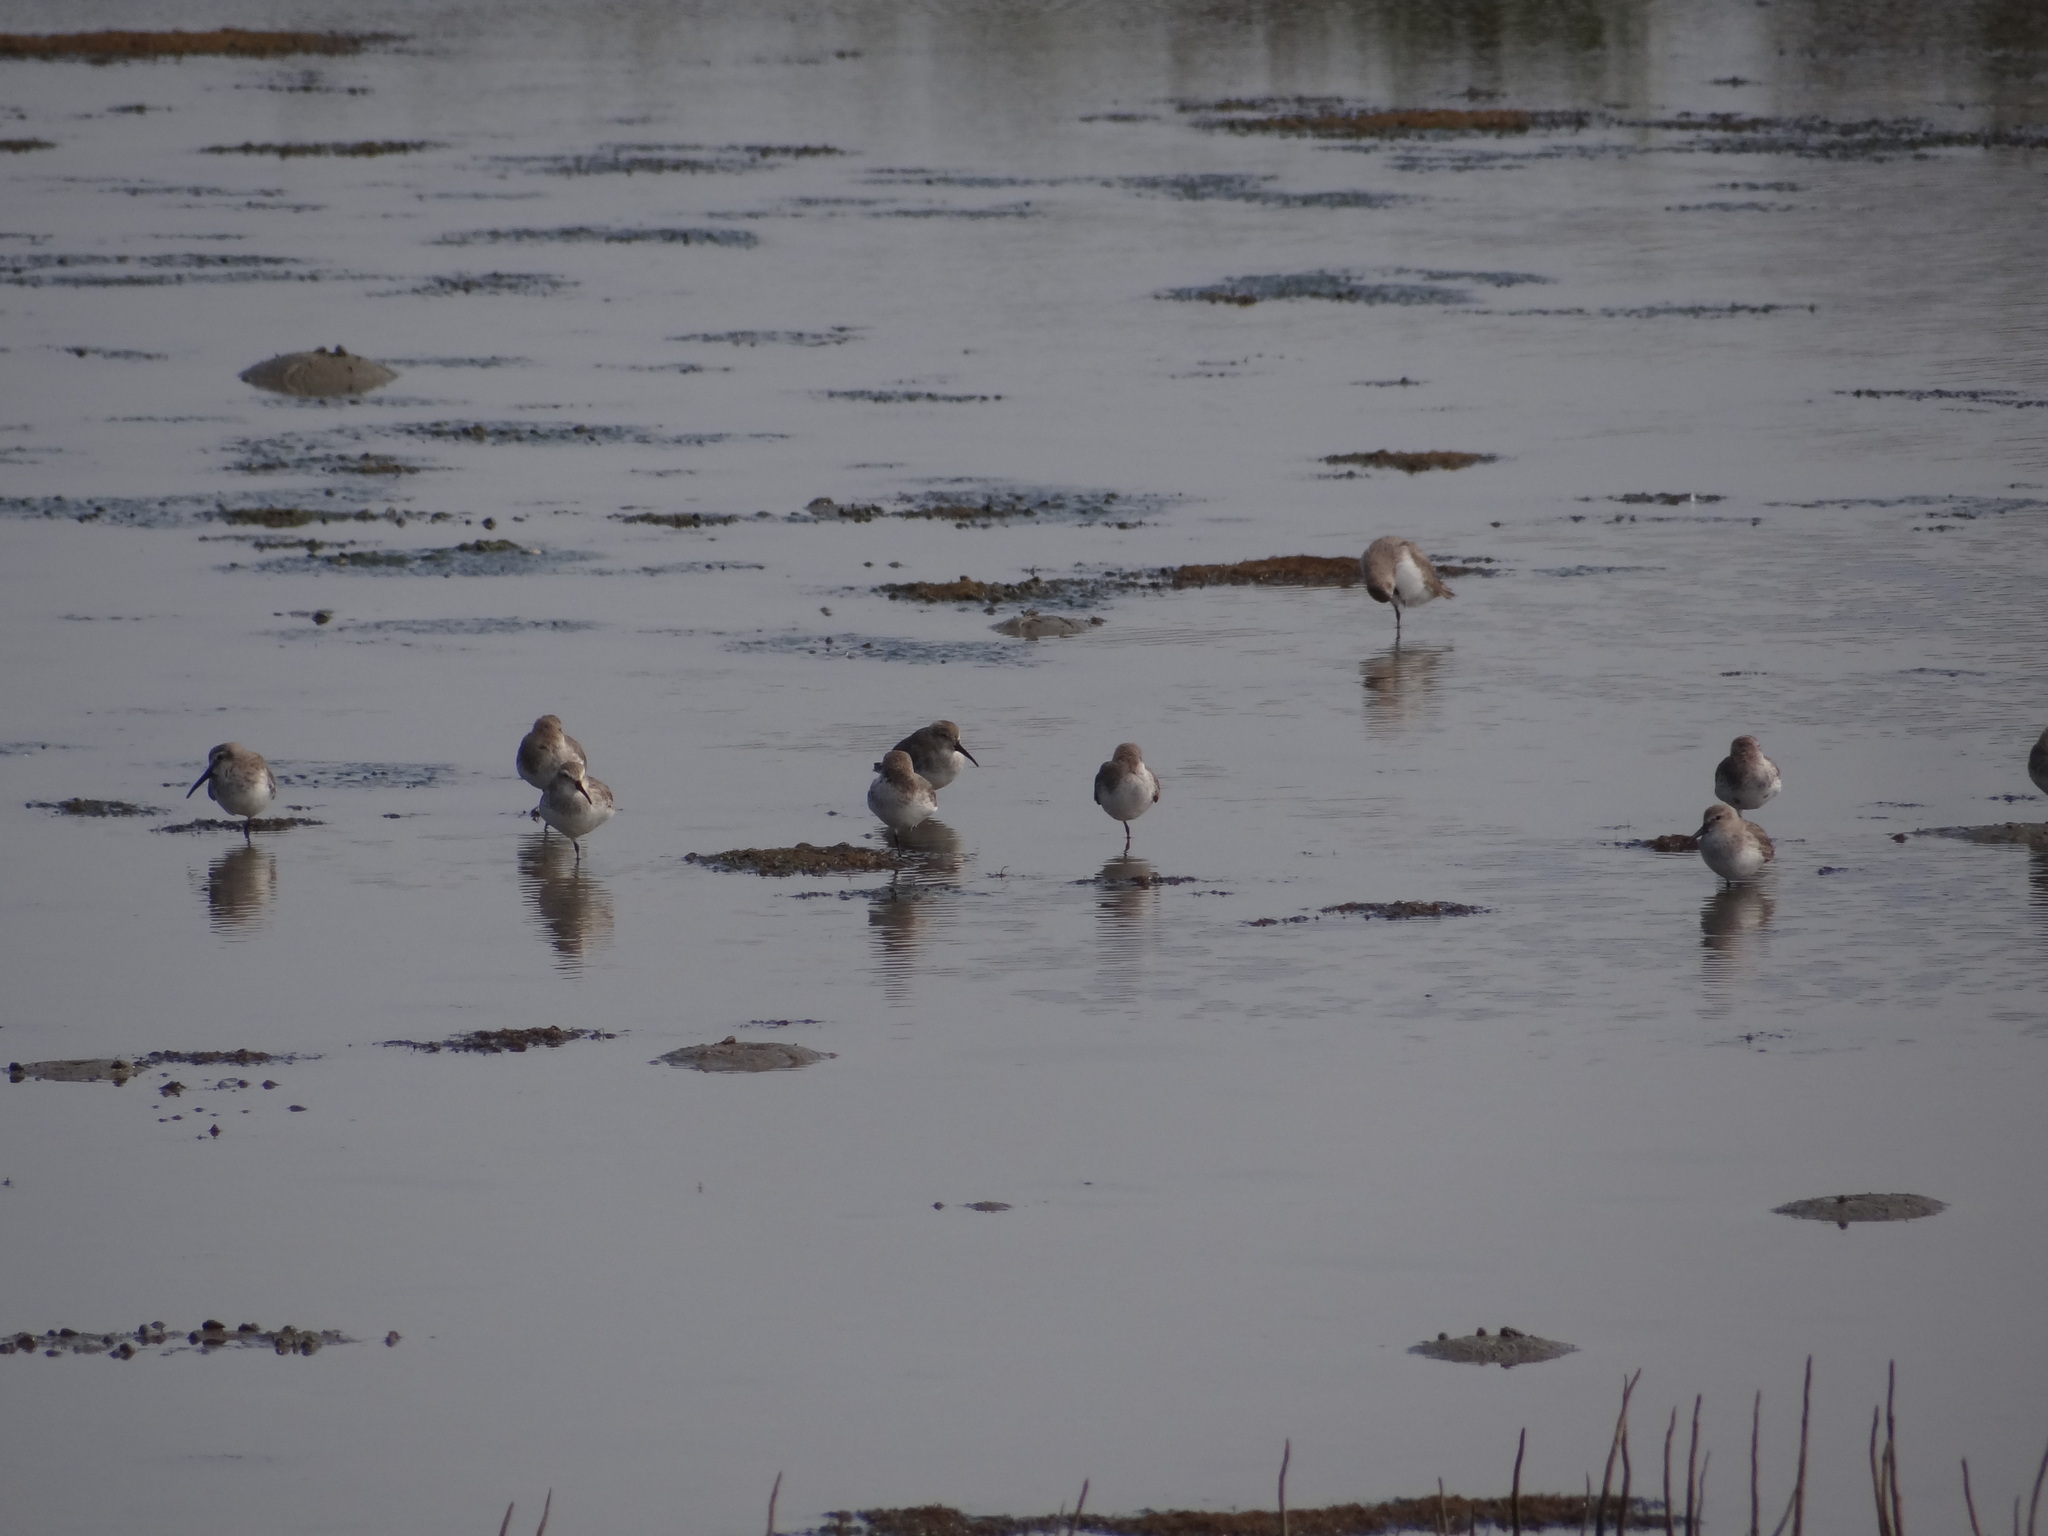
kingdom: Animalia
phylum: Chordata
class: Aves
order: Charadriiformes
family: Scolopacidae
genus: Calidris
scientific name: Calidris alpina
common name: Dunlin
